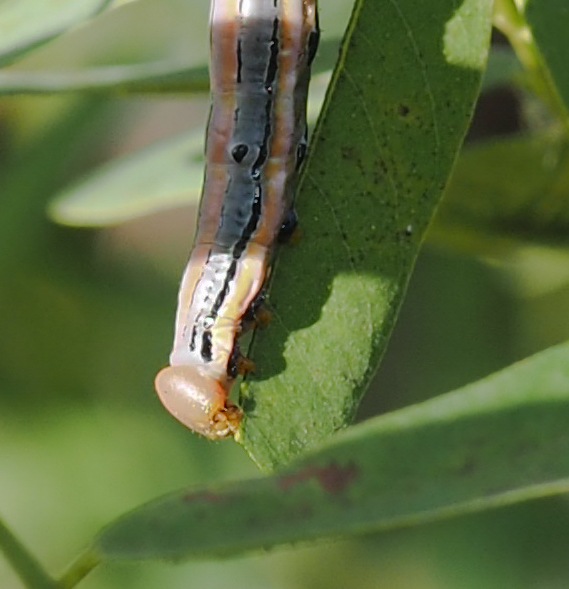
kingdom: Animalia
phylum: Arthropoda
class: Insecta
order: Lepidoptera
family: Notodontidae
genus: Dasylophia
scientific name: Dasylophia anguina
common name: Black-spotted prominent
